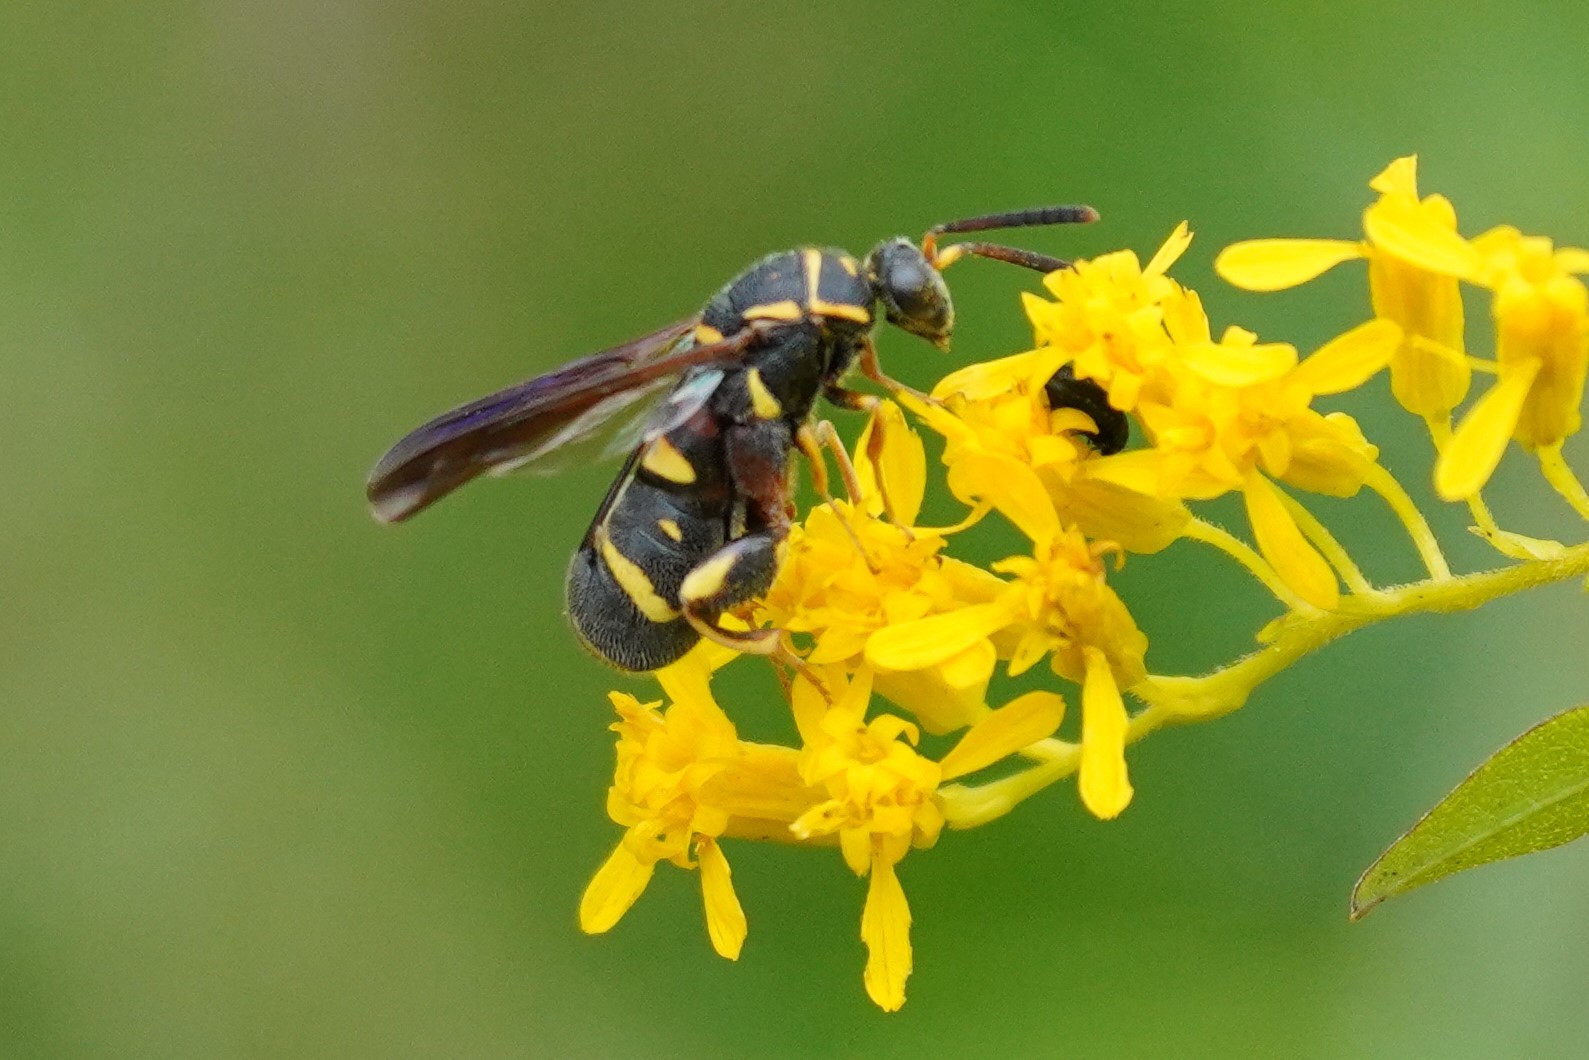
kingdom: Animalia
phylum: Arthropoda
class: Insecta
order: Hymenoptera
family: Leucospidae
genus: Leucospis
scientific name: Leucospis affinis
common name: Wasp
